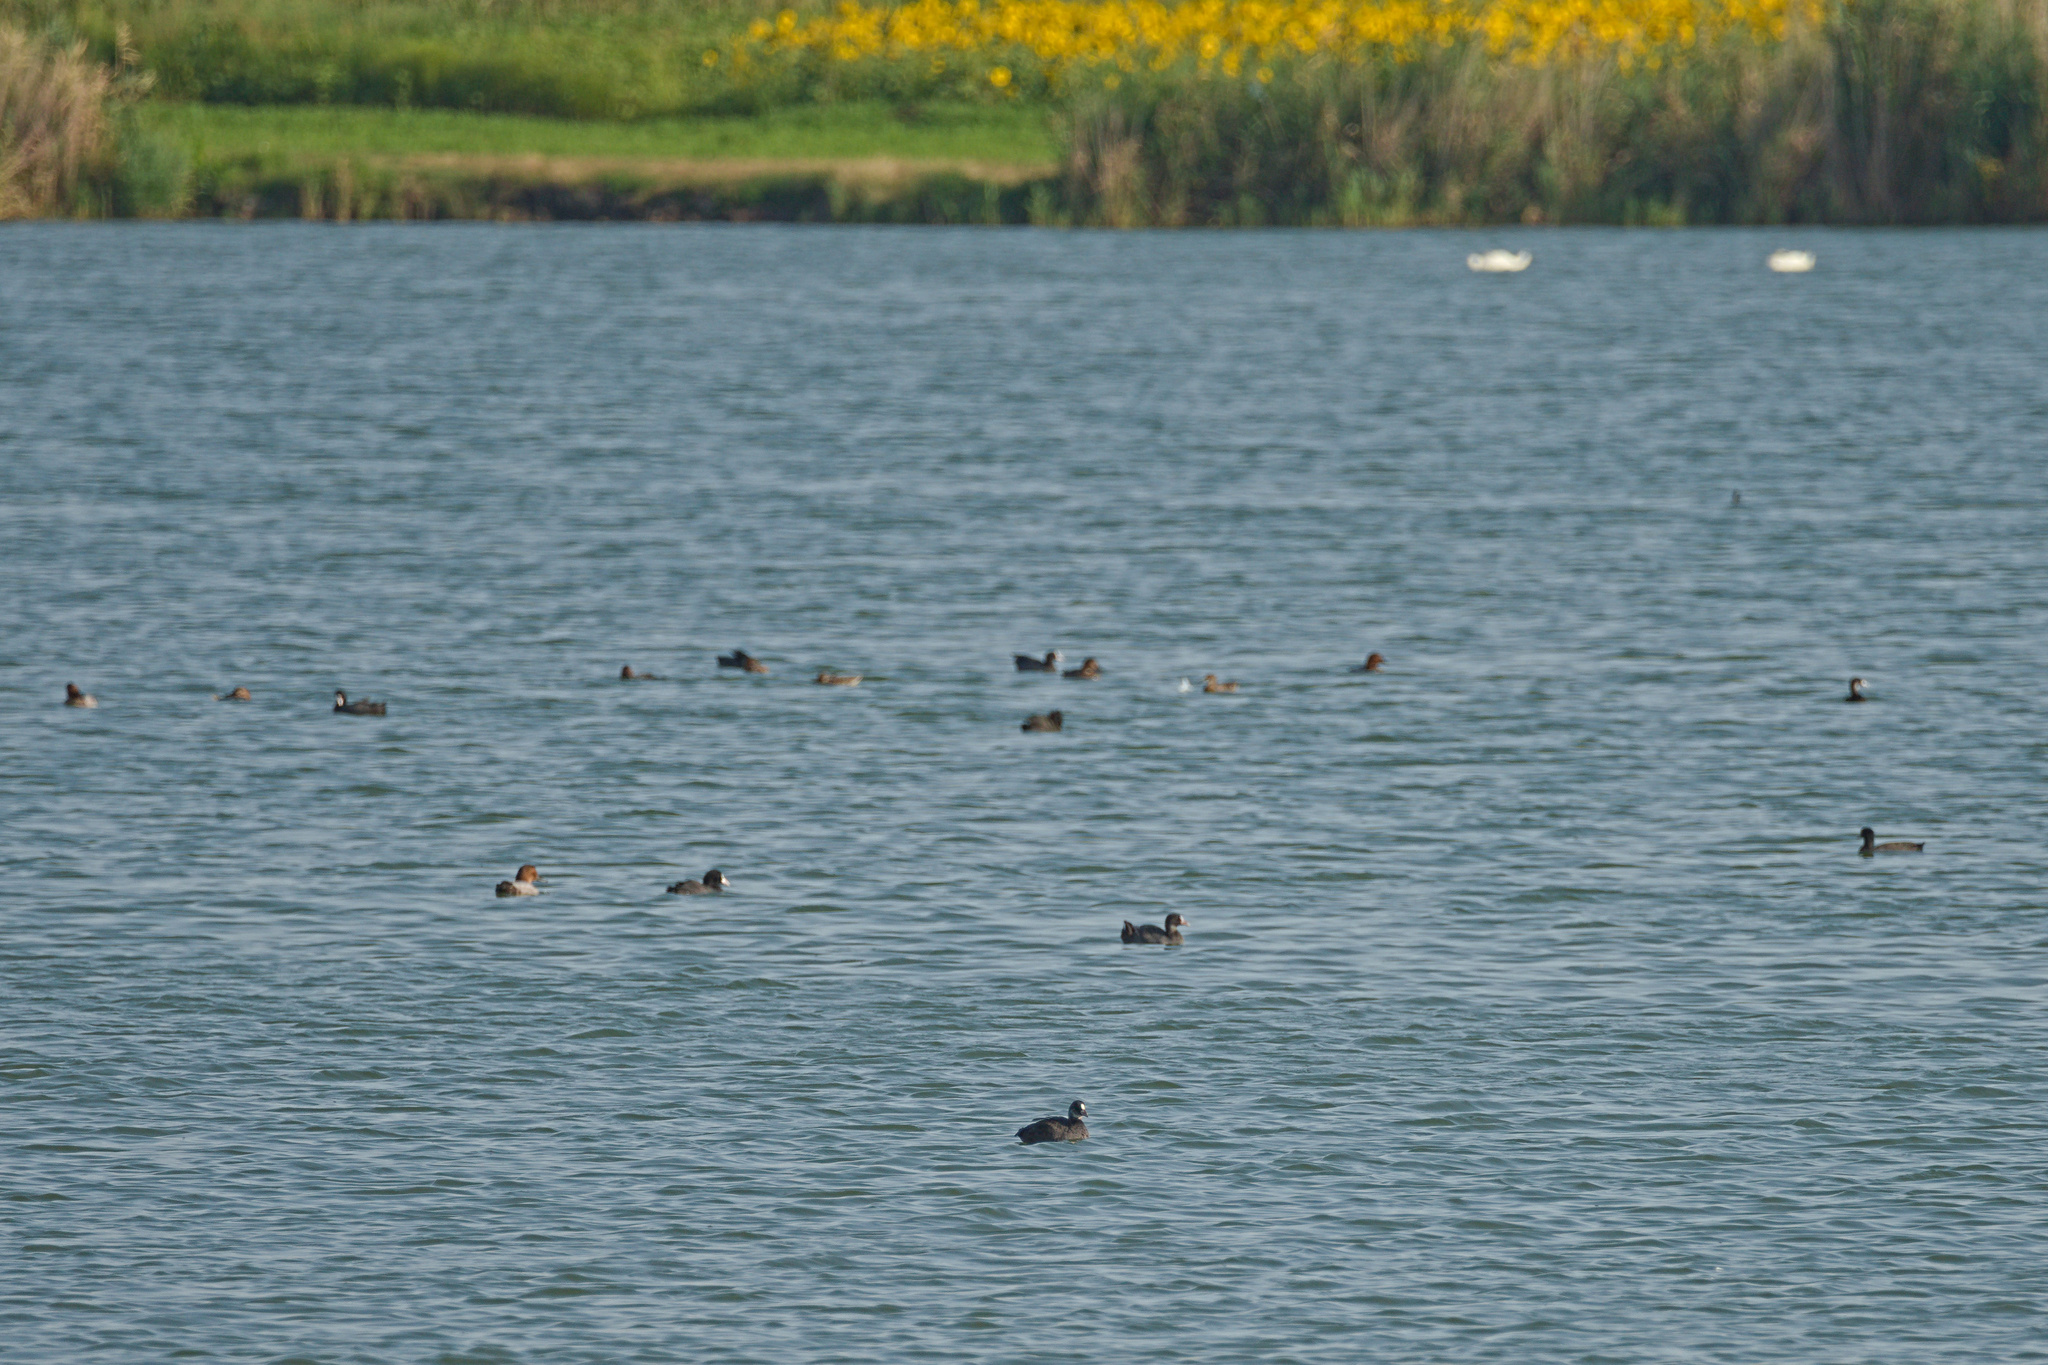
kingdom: Animalia
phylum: Chordata
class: Aves
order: Gruiformes
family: Rallidae
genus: Fulica
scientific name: Fulica atra
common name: Eurasian coot
